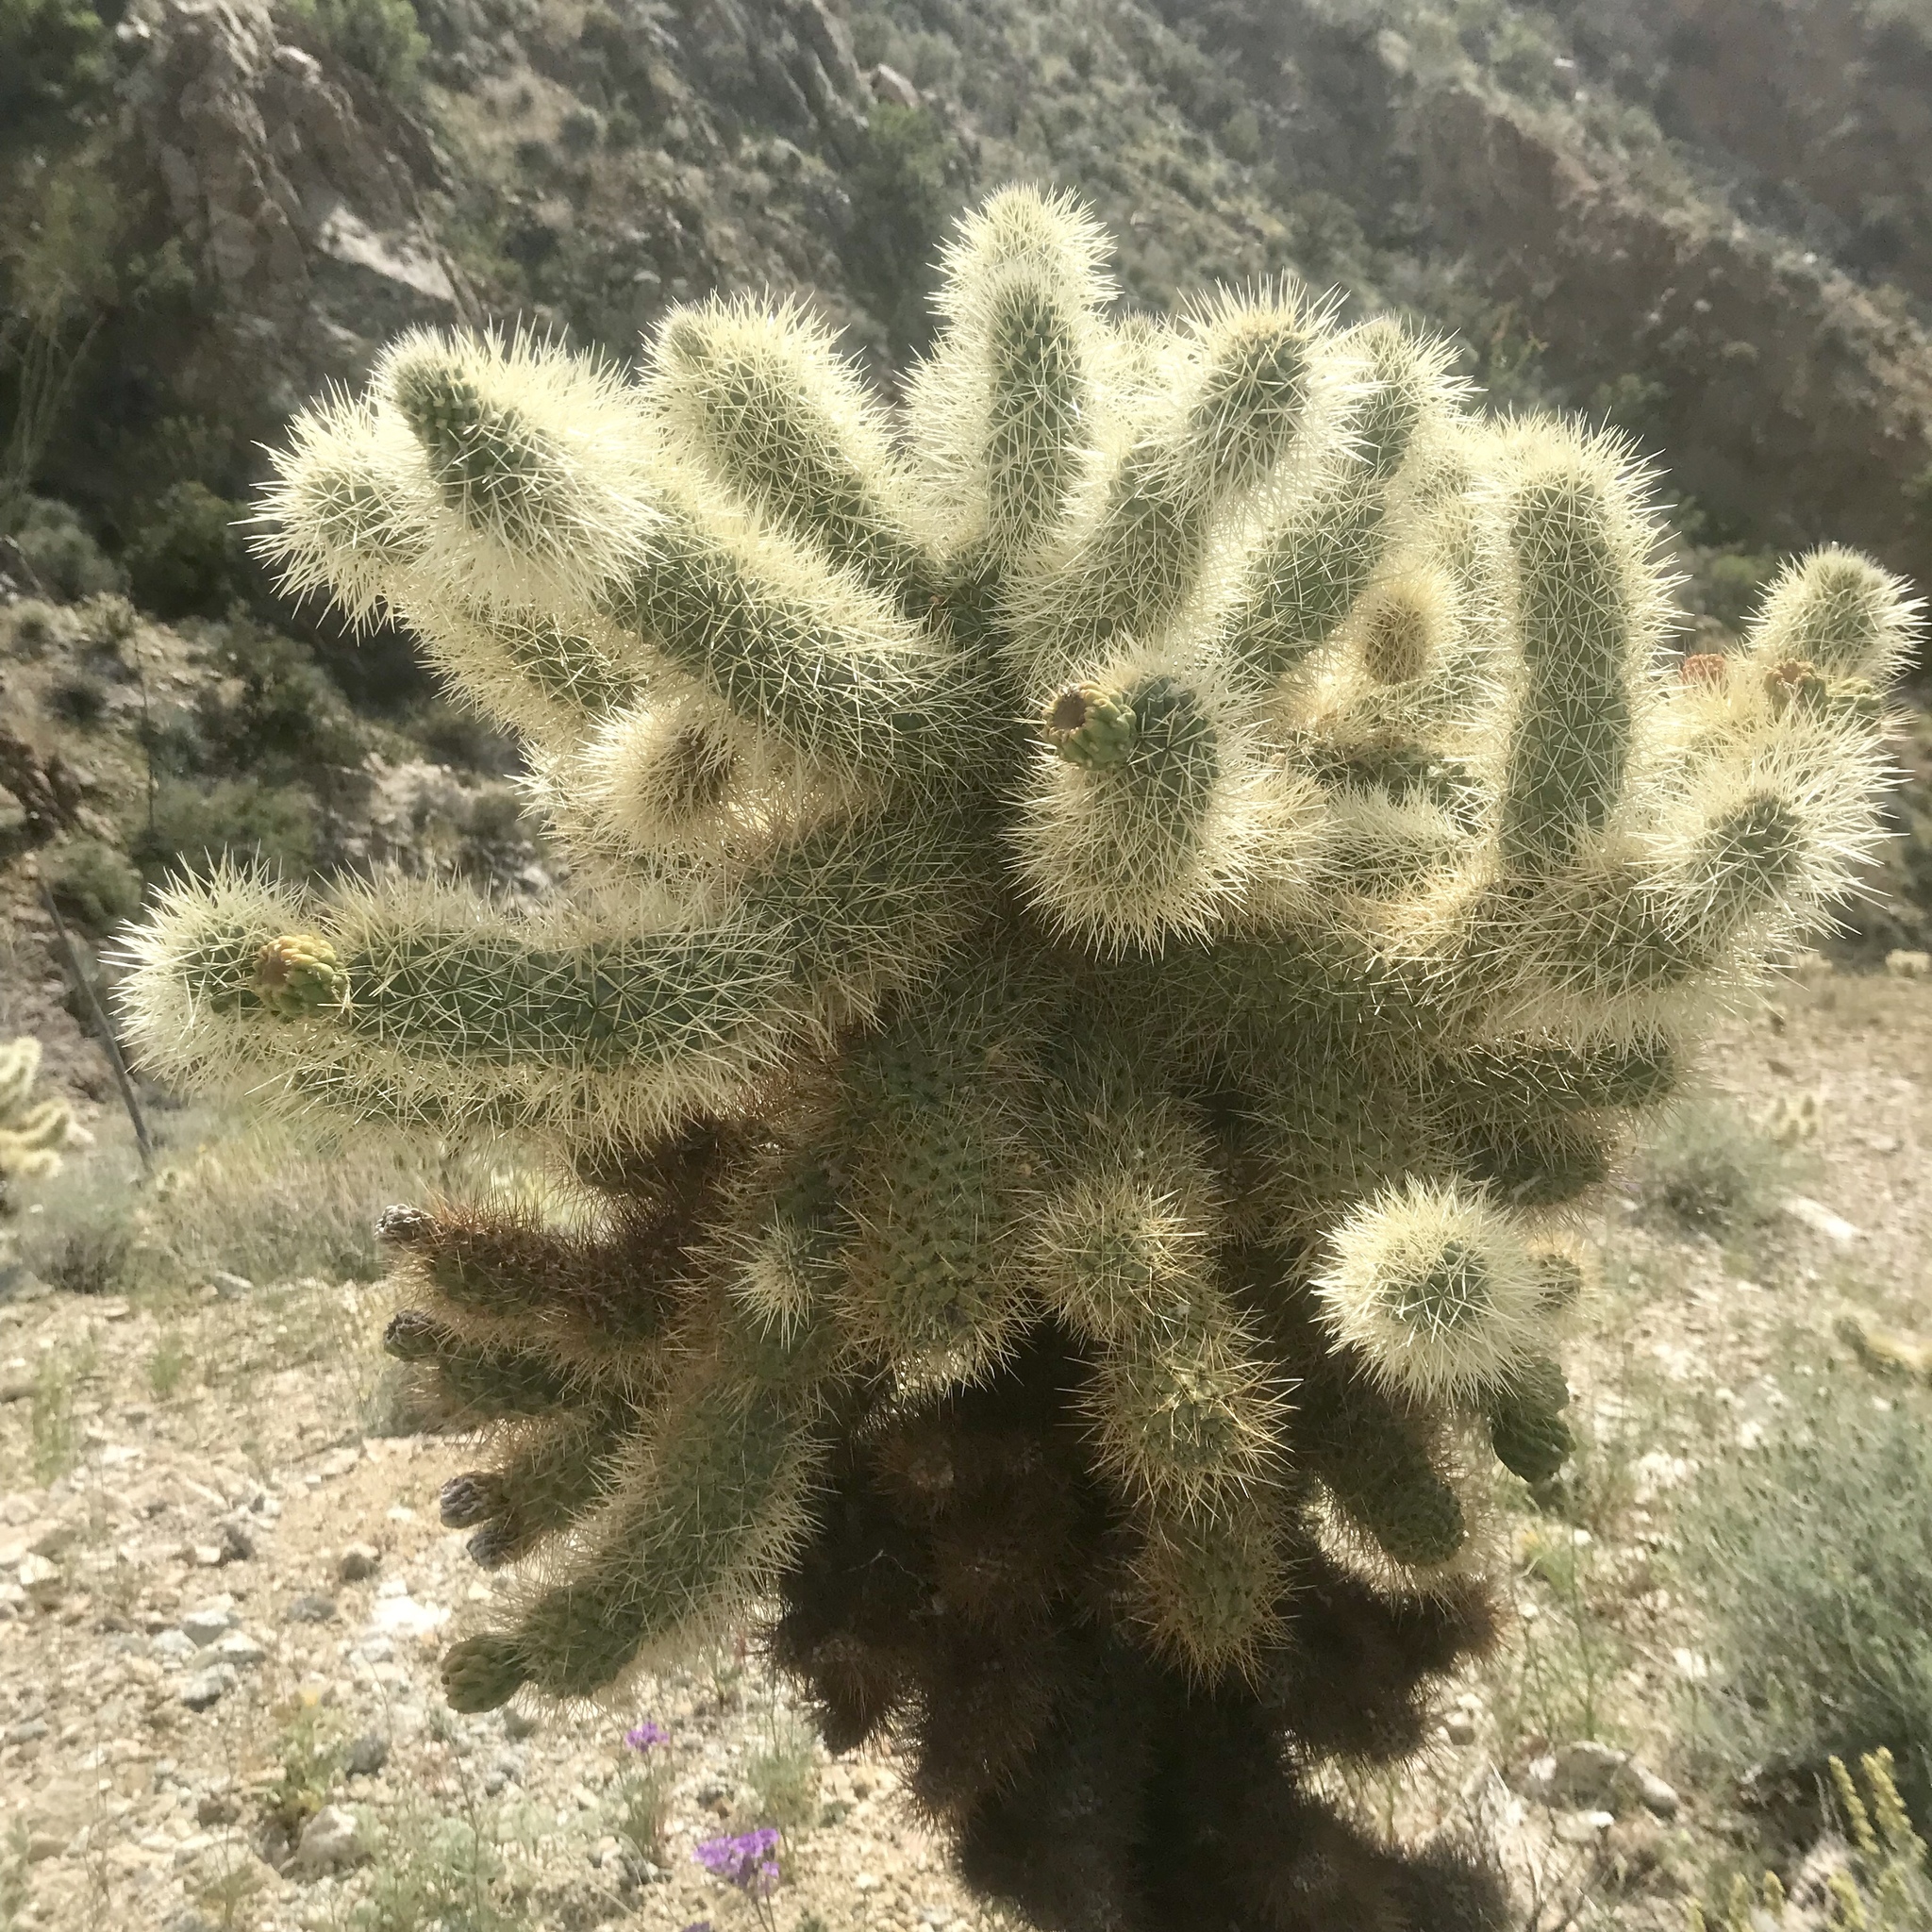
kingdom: Plantae
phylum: Tracheophyta
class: Magnoliopsida
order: Caryophyllales
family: Cactaceae
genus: Cylindropuntia
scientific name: Cylindropuntia fosbergii
